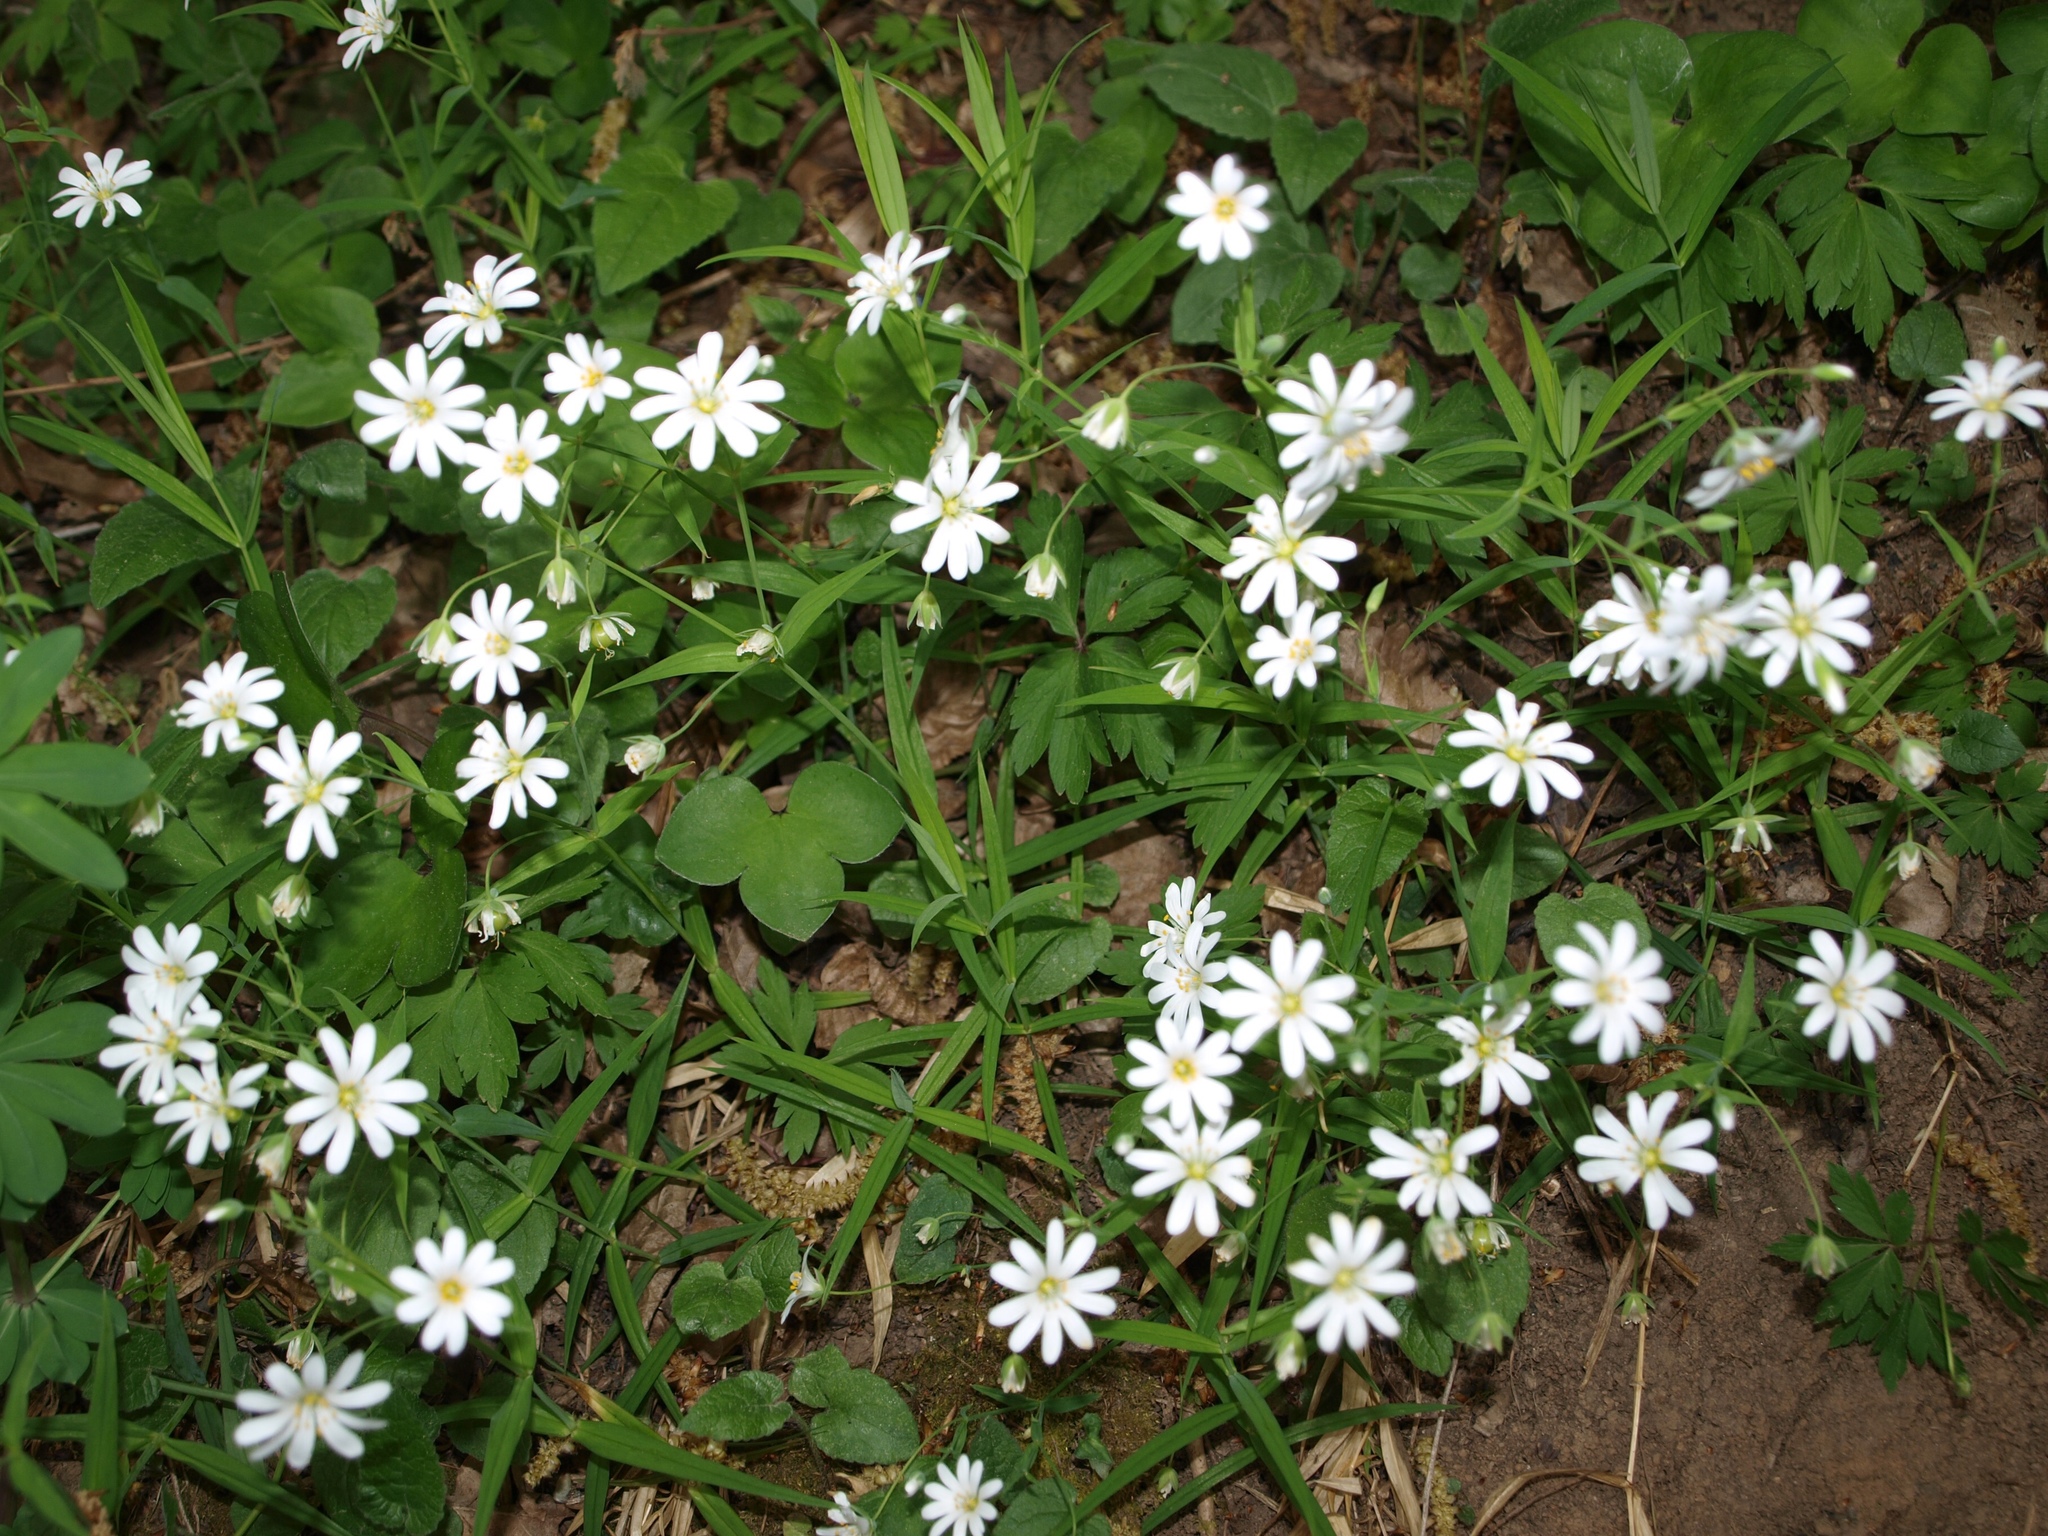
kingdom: Plantae
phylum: Tracheophyta
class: Magnoliopsida
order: Caryophyllales
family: Caryophyllaceae
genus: Rabelera
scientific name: Rabelera holostea
